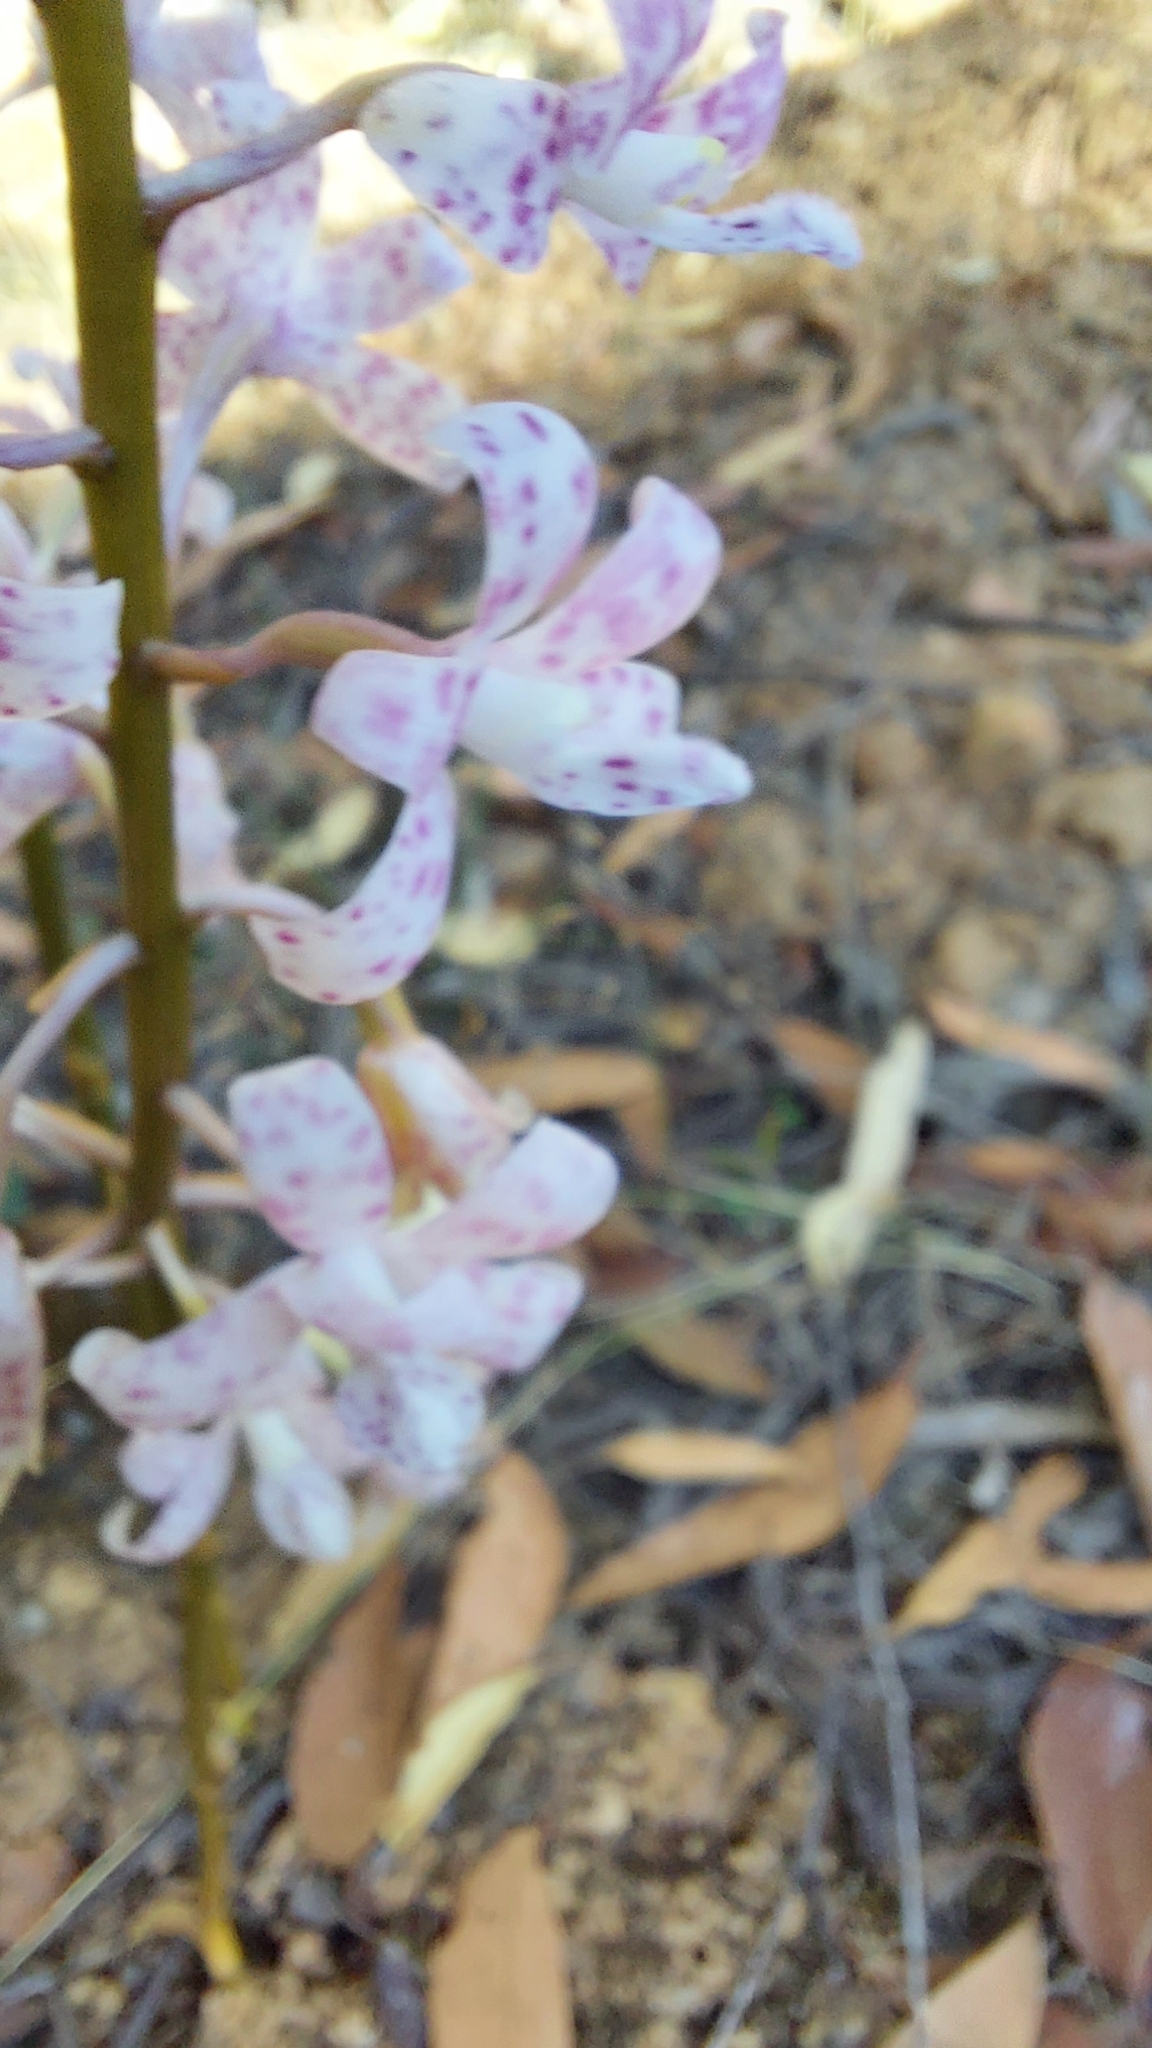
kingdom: Plantae
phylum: Tracheophyta
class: Liliopsida
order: Asparagales
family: Orchidaceae
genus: Dipodium
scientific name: Dipodium pardalinum
